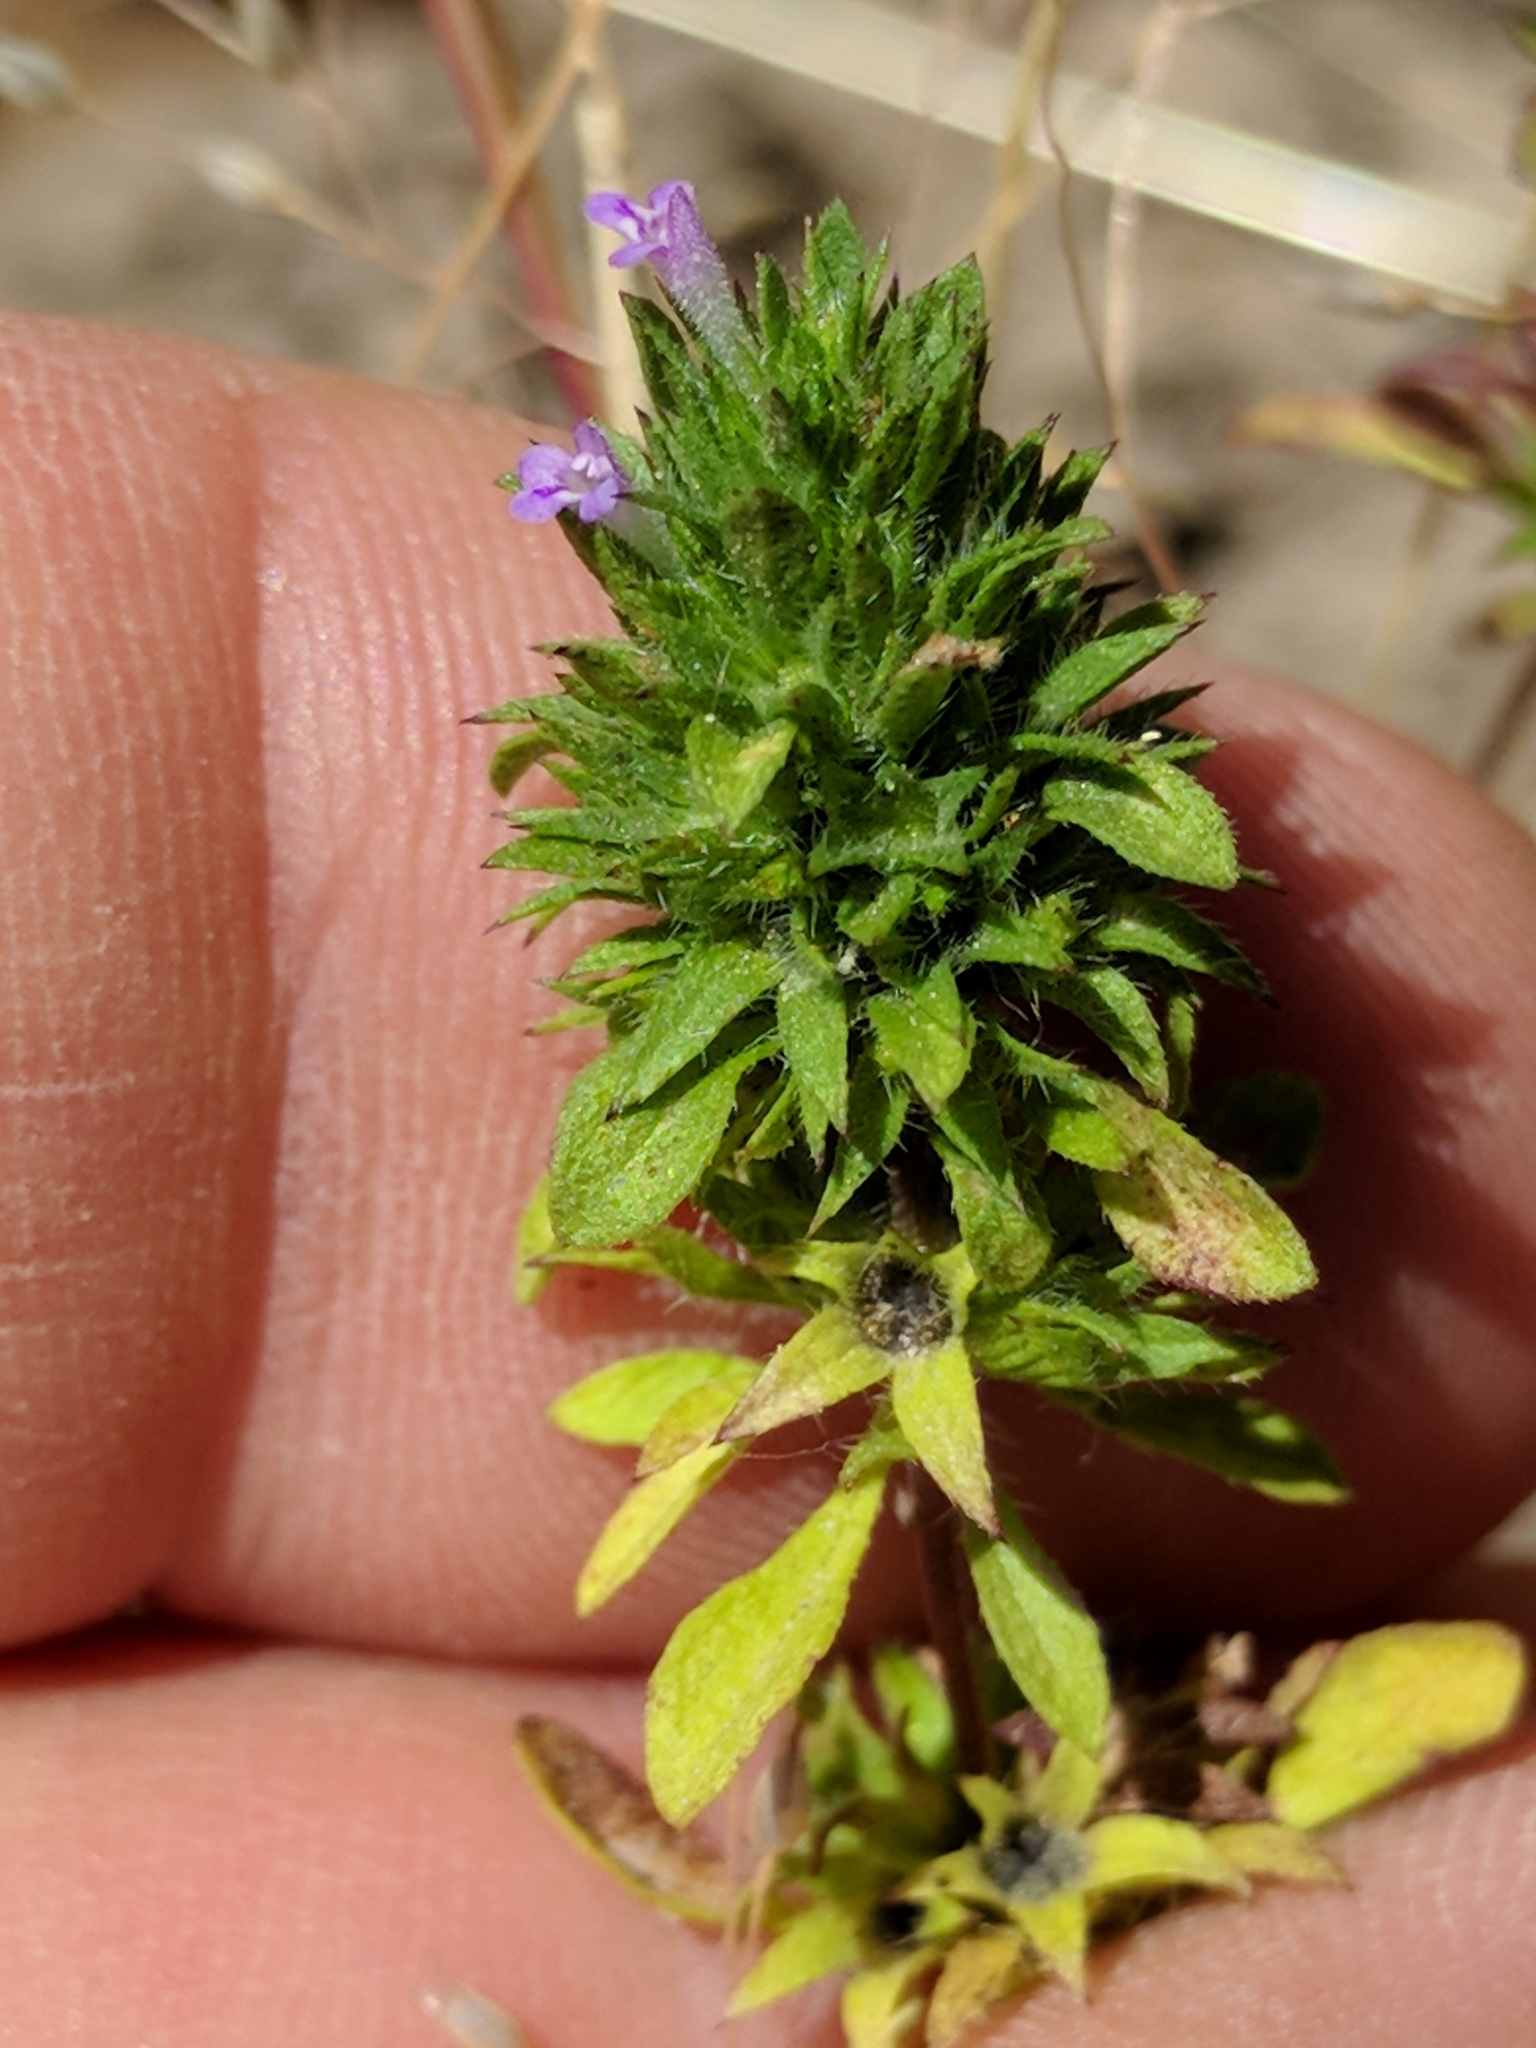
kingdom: Plantae
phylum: Tracheophyta
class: Magnoliopsida
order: Lamiales
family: Lamiaceae
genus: Pogogyne
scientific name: Pogogyne serpylloides
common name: Thymeleaf mesamint
